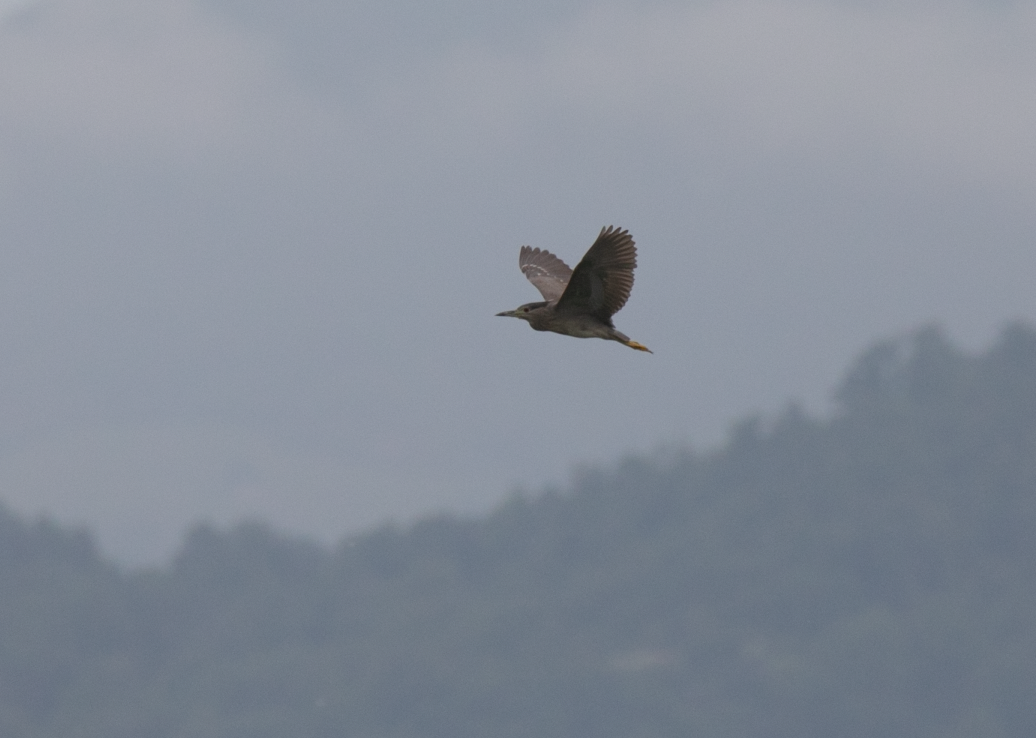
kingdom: Animalia
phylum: Chordata
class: Aves
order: Pelecaniformes
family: Ardeidae
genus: Nycticorax
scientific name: Nycticorax nycticorax
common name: Black-crowned night heron
